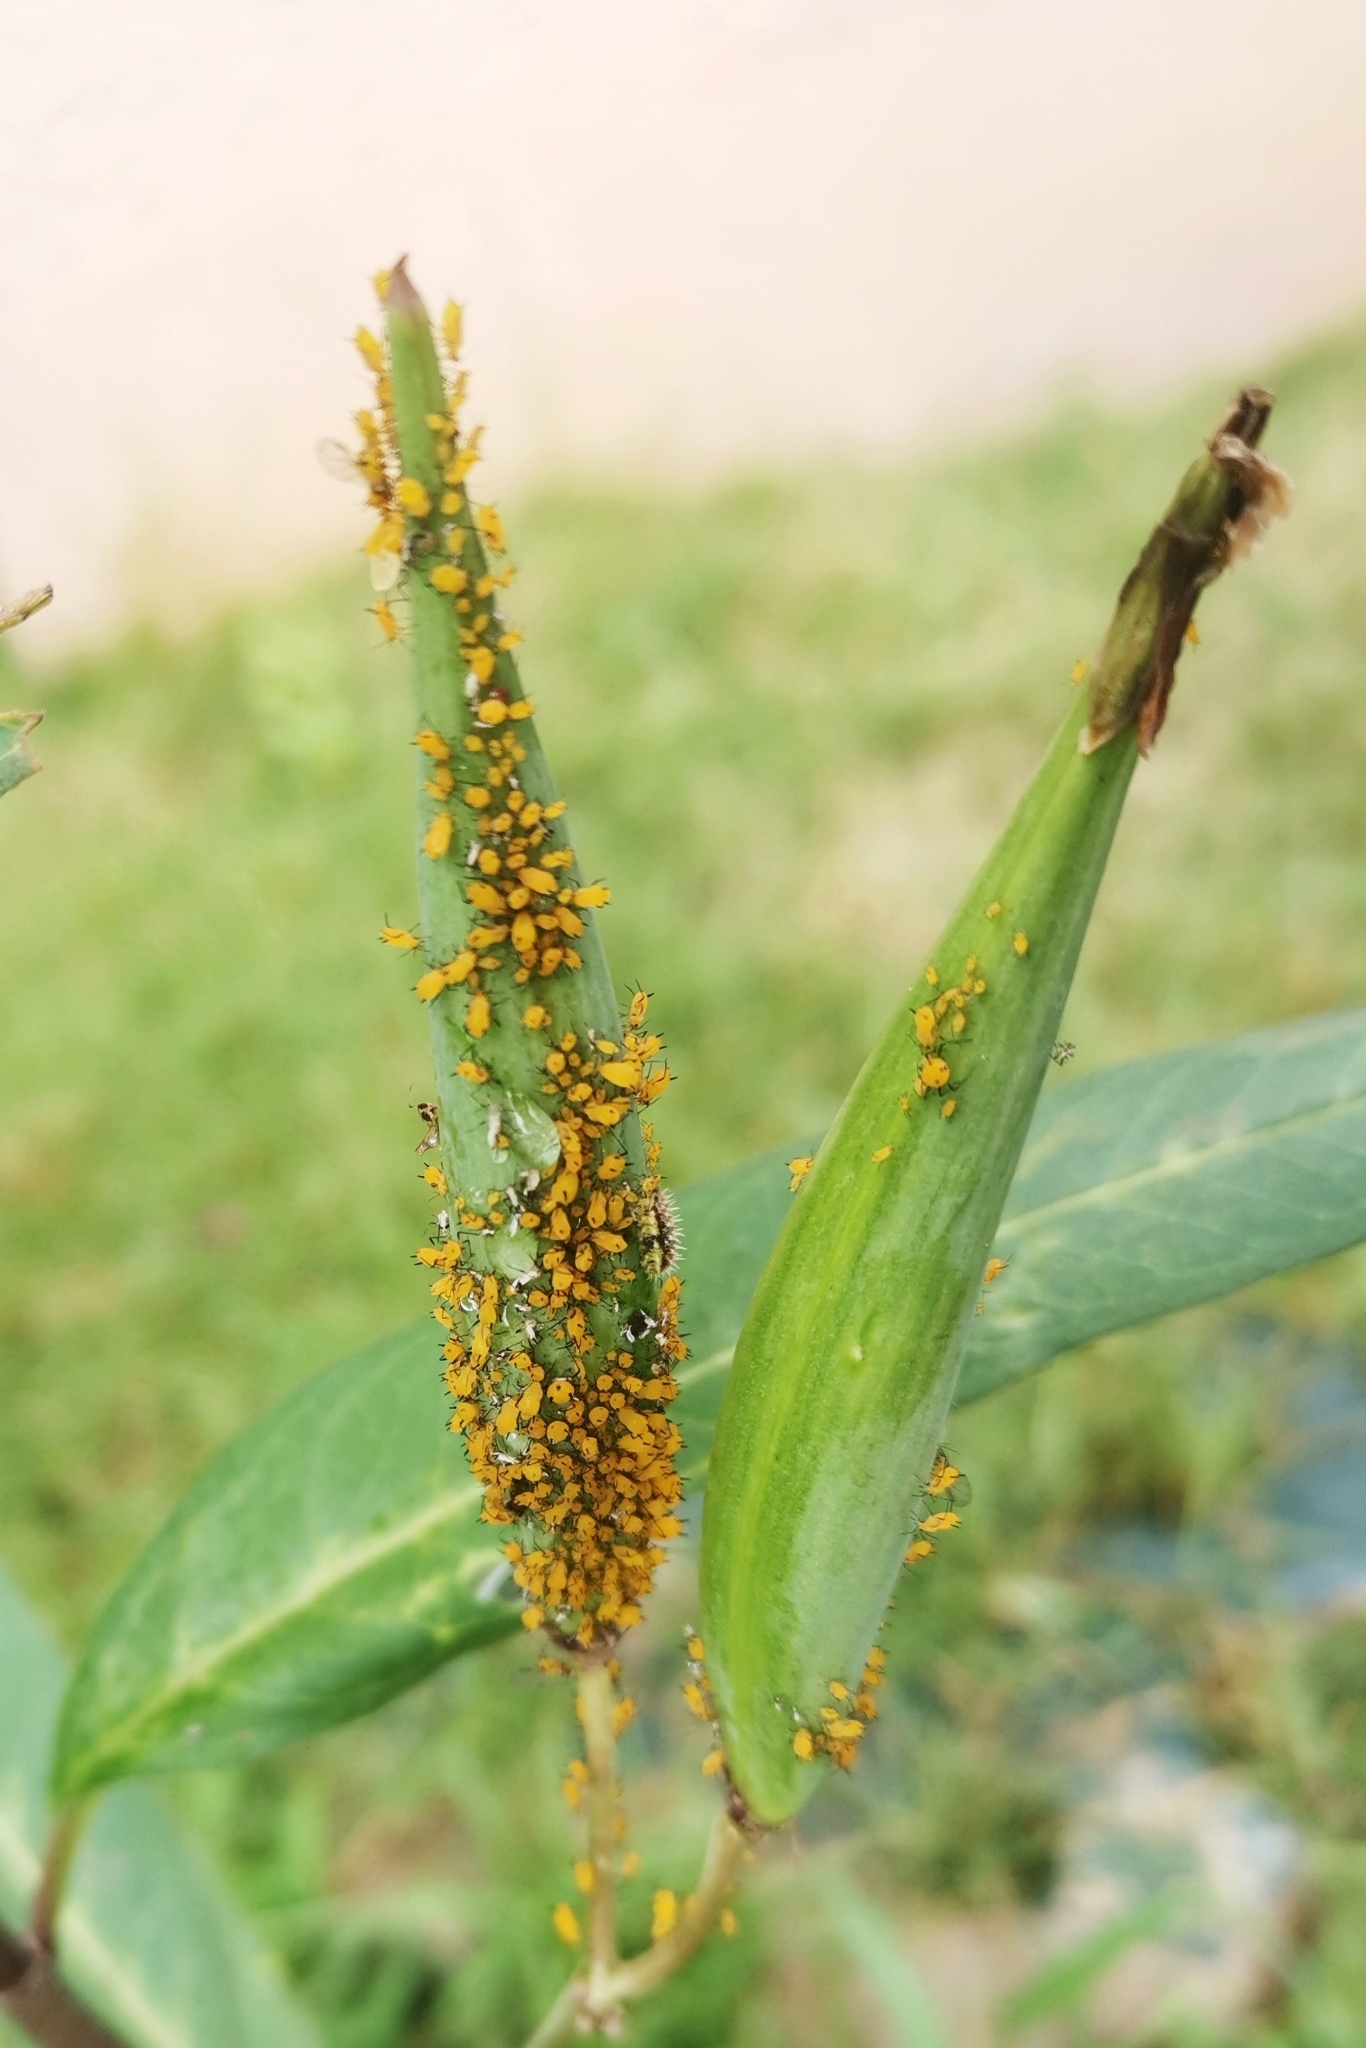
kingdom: Animalia
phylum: Arthropoda
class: Insecta
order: Hemiptera
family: Aphididae
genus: Aphis
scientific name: Aphis nerii
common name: Oleander aphid
